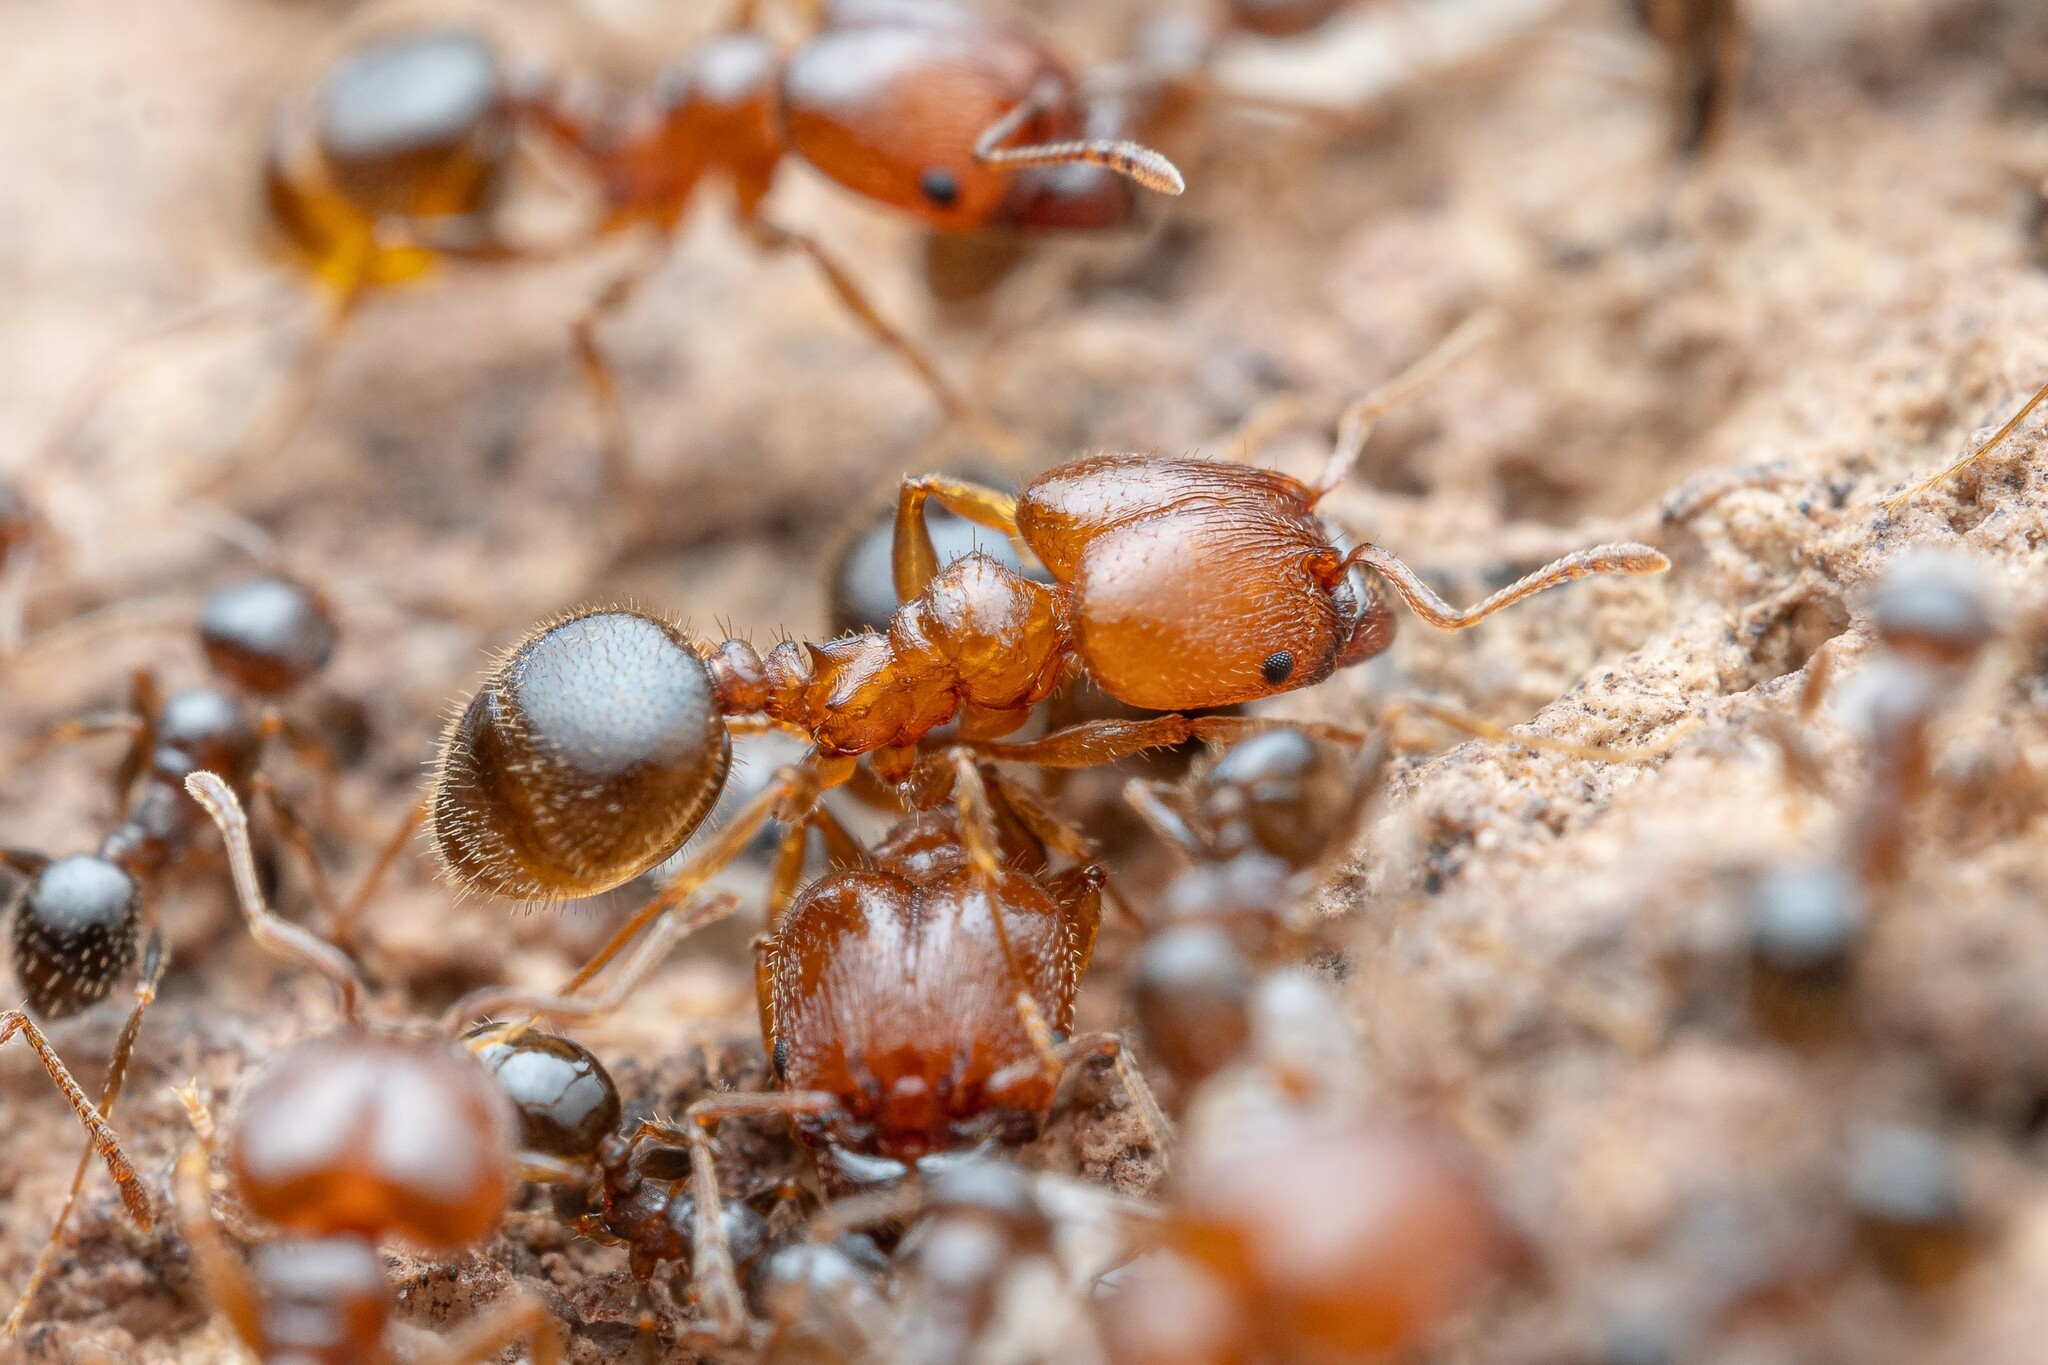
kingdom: Animalia
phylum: Arthropoda
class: Insecta
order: Hymenoptera
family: Formicidae
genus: Pheidole
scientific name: Pheidole tetra
